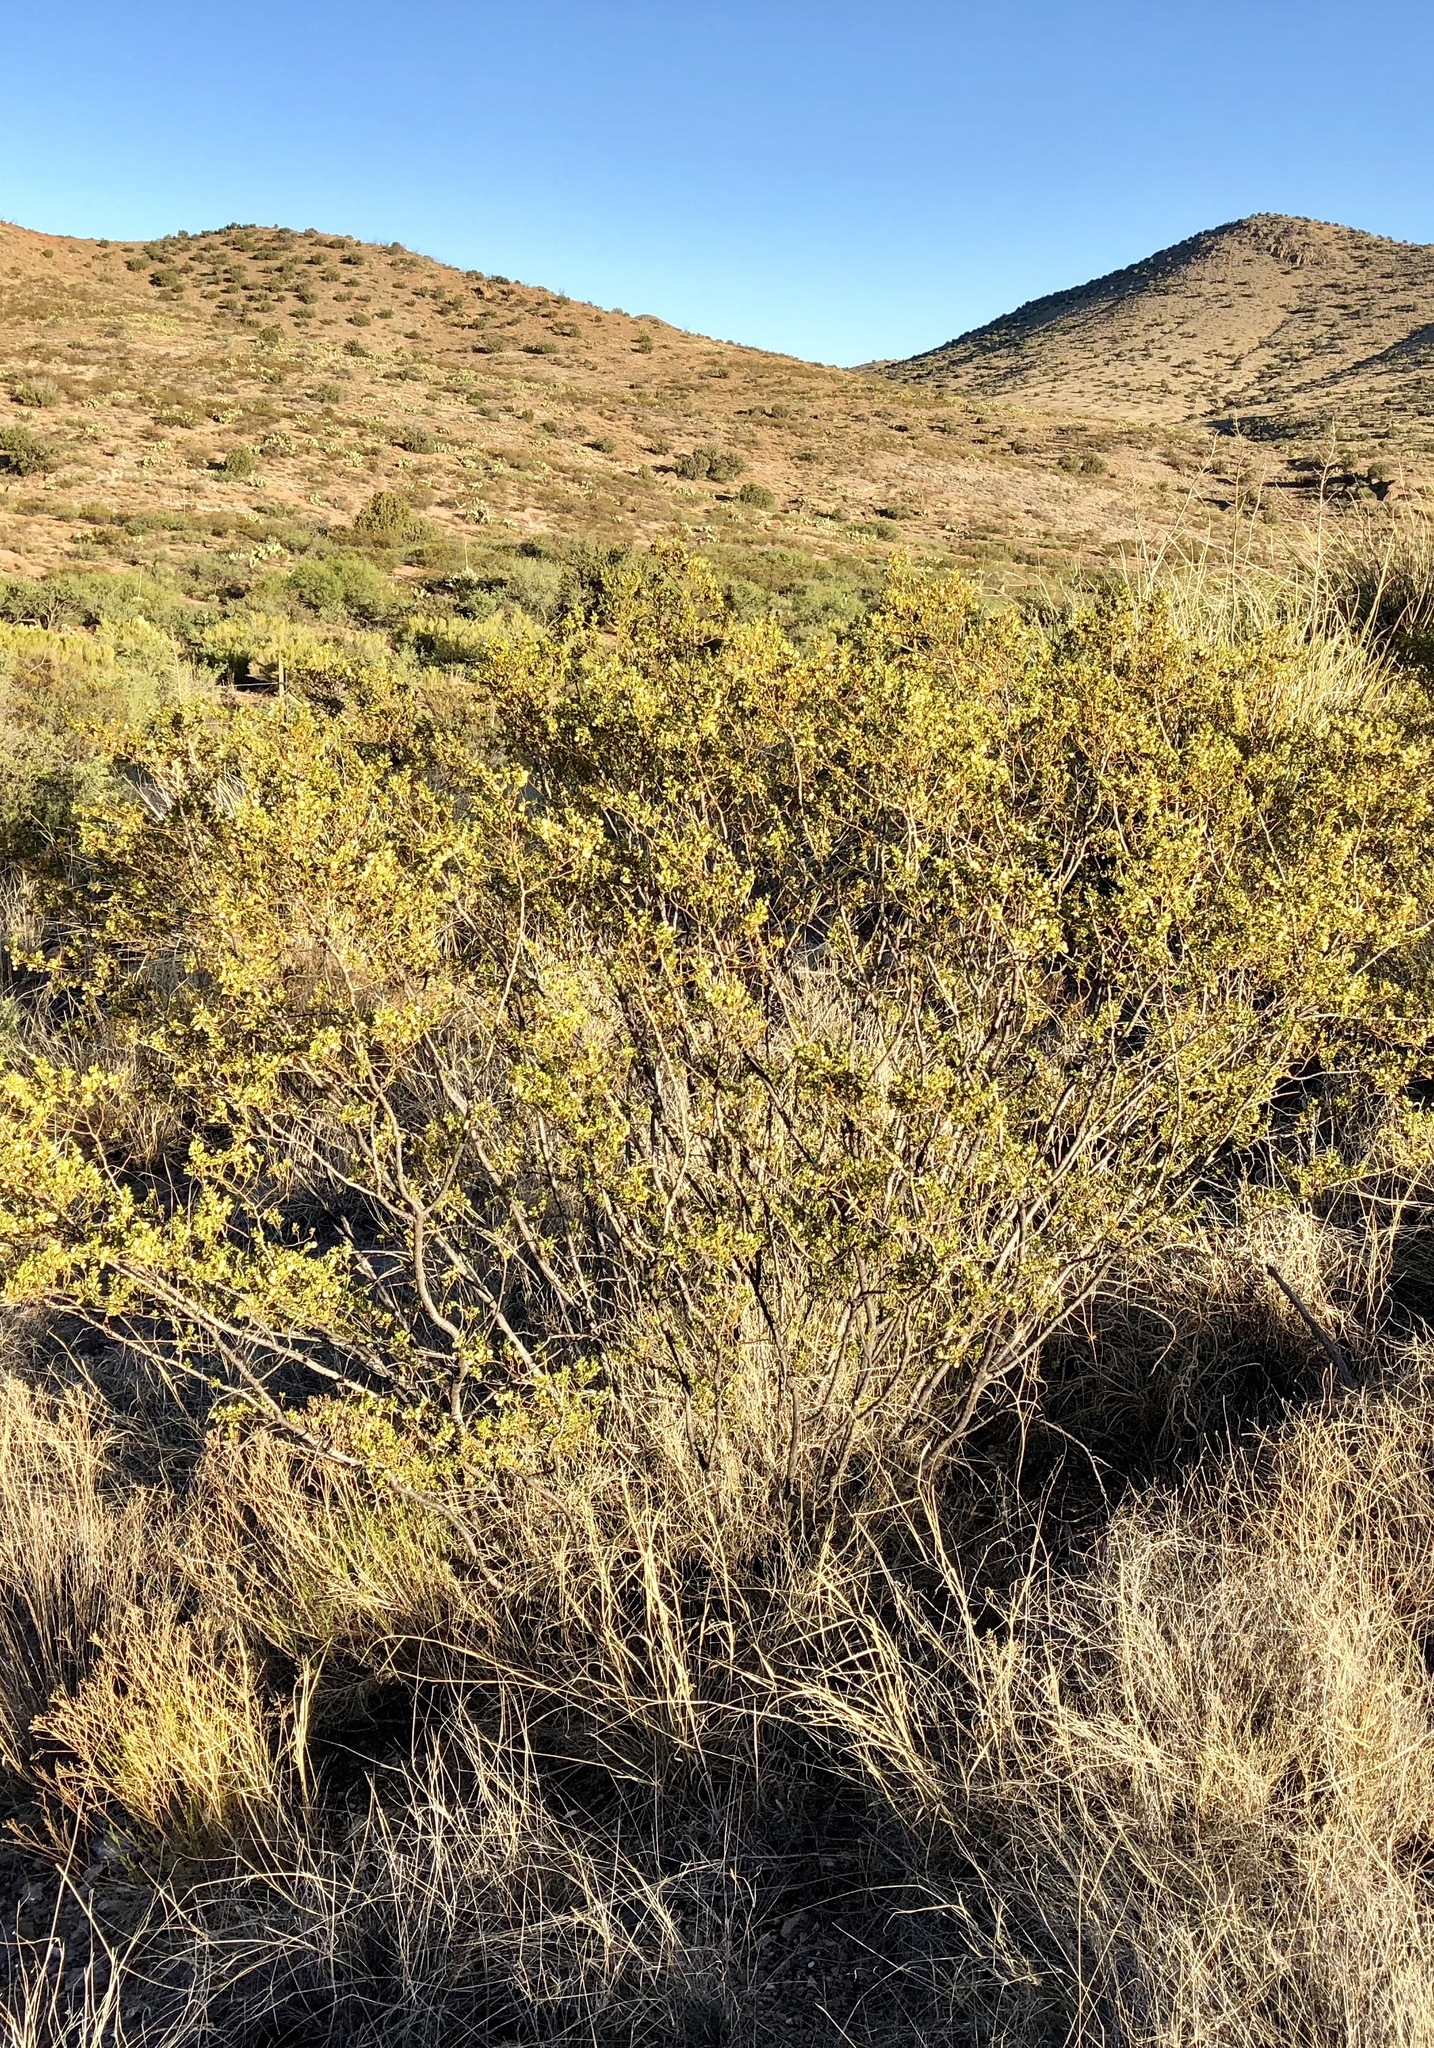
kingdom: Plantae
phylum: Tracheophyta
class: Magnoliopsida
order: Zygophyllales
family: Zygophyllaceae
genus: Larrea
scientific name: Larrea tridentata
